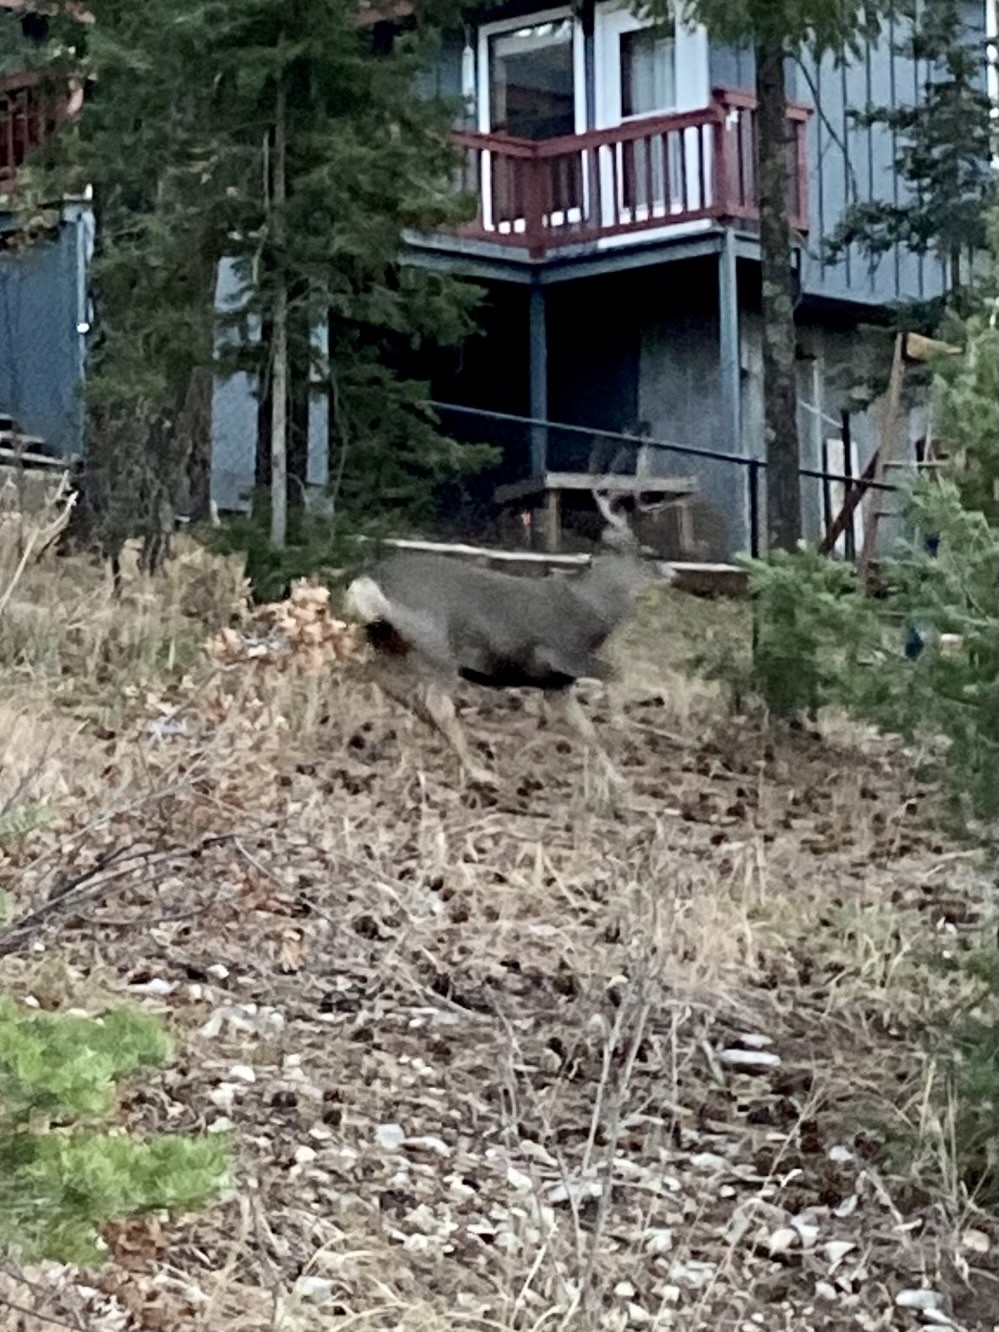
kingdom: Animalia
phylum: Chordata
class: Mammalia
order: Artiodactyla
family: Cervidae
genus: Odocoileus
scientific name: Odocoileus hemionus
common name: Mule deer
